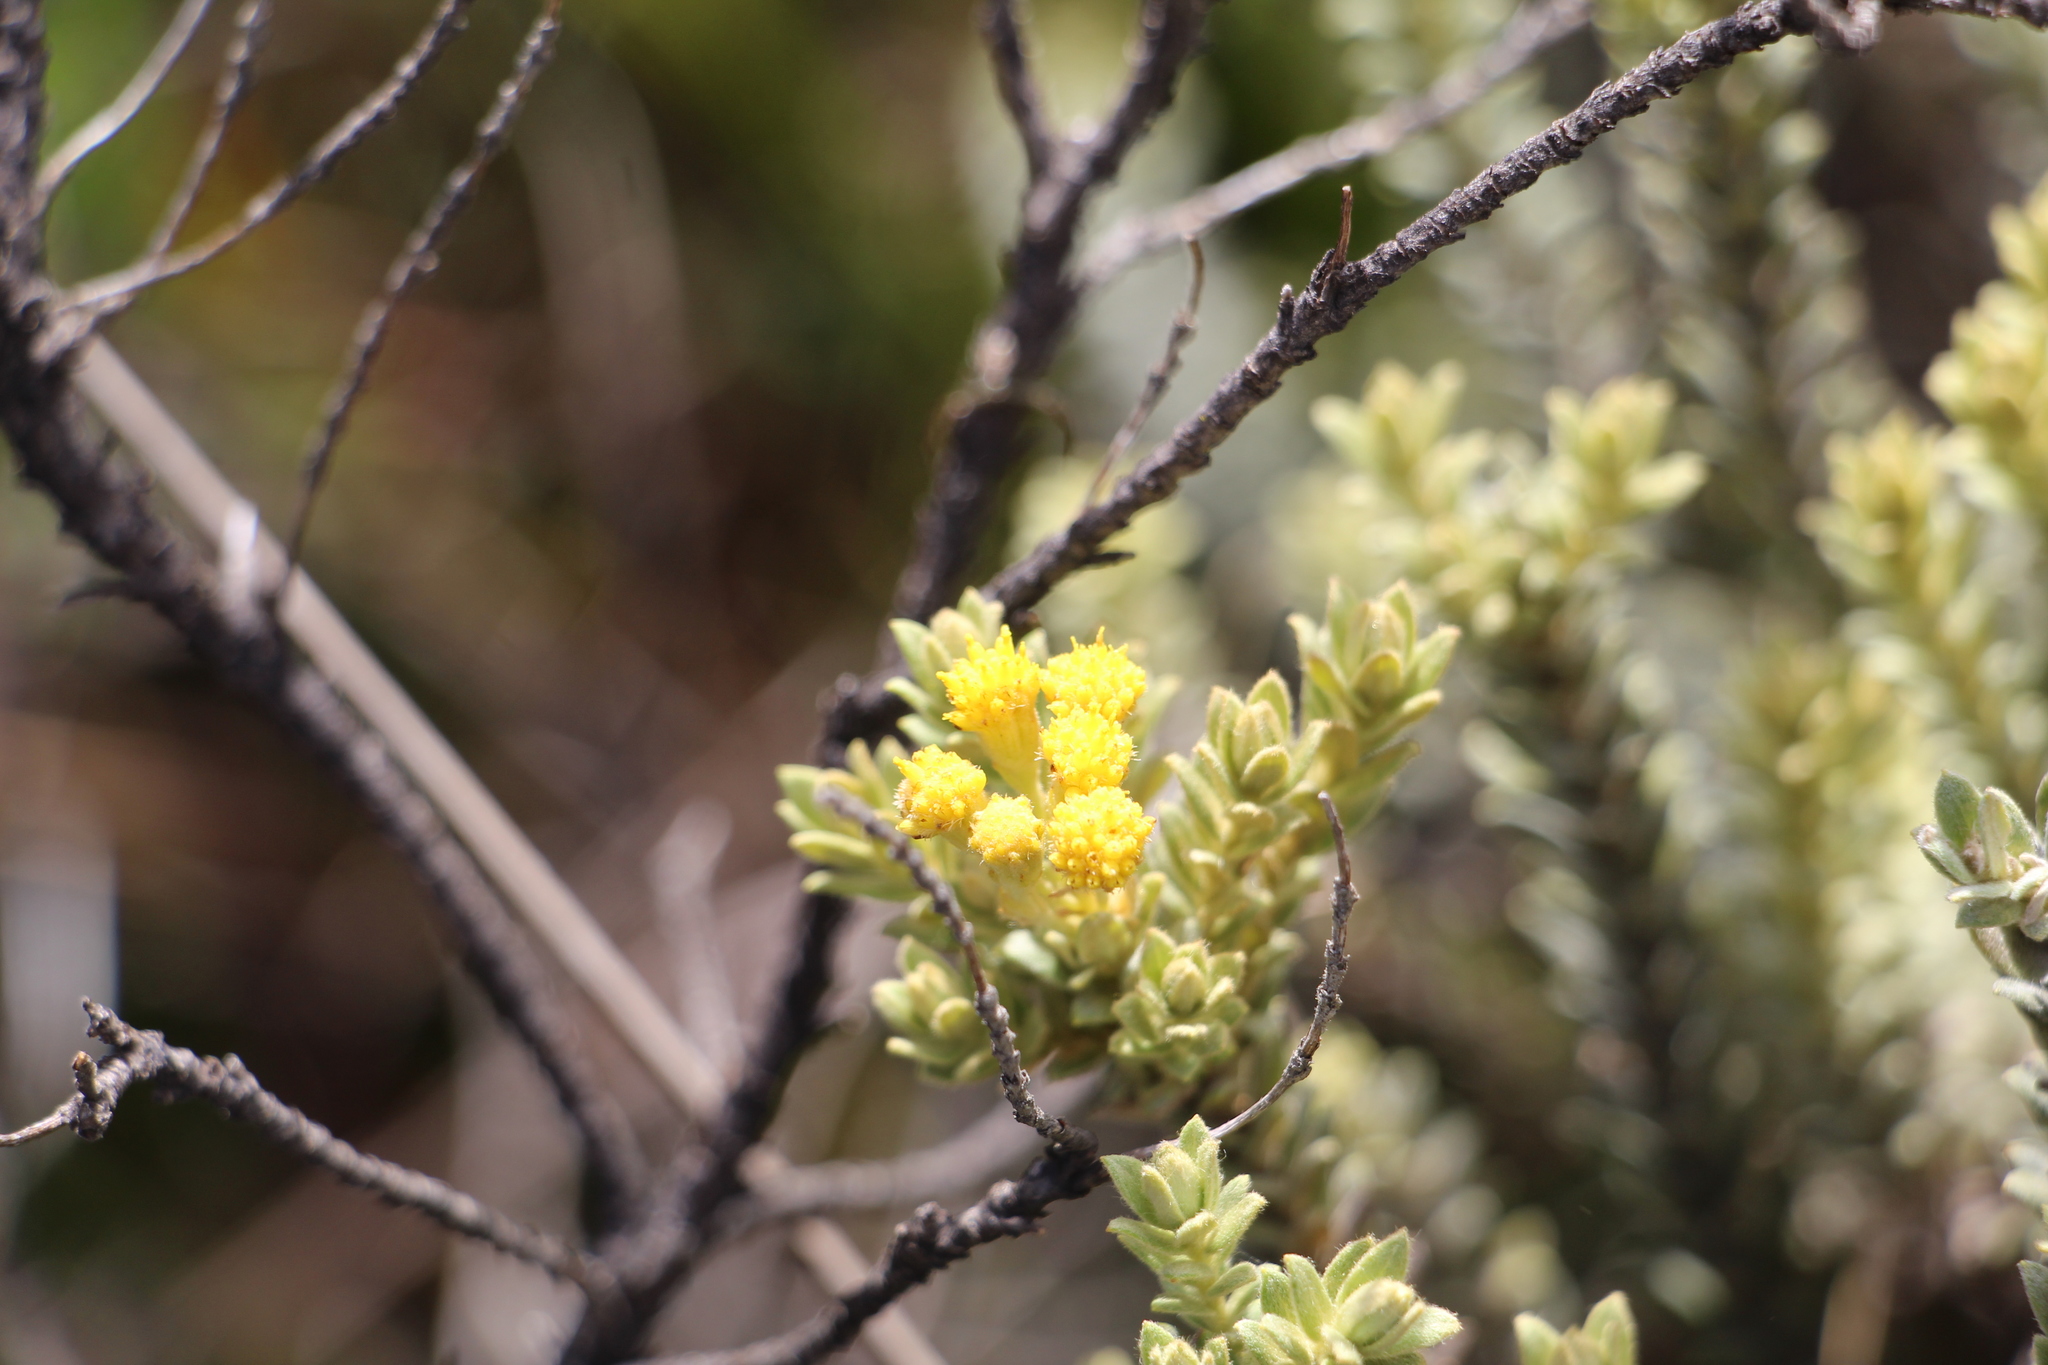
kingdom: Plantae
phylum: Tracheophyta
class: Magnoliopsida
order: Asterales
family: Asteraceae
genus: Monticalia
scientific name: Monticalia ledifolia
